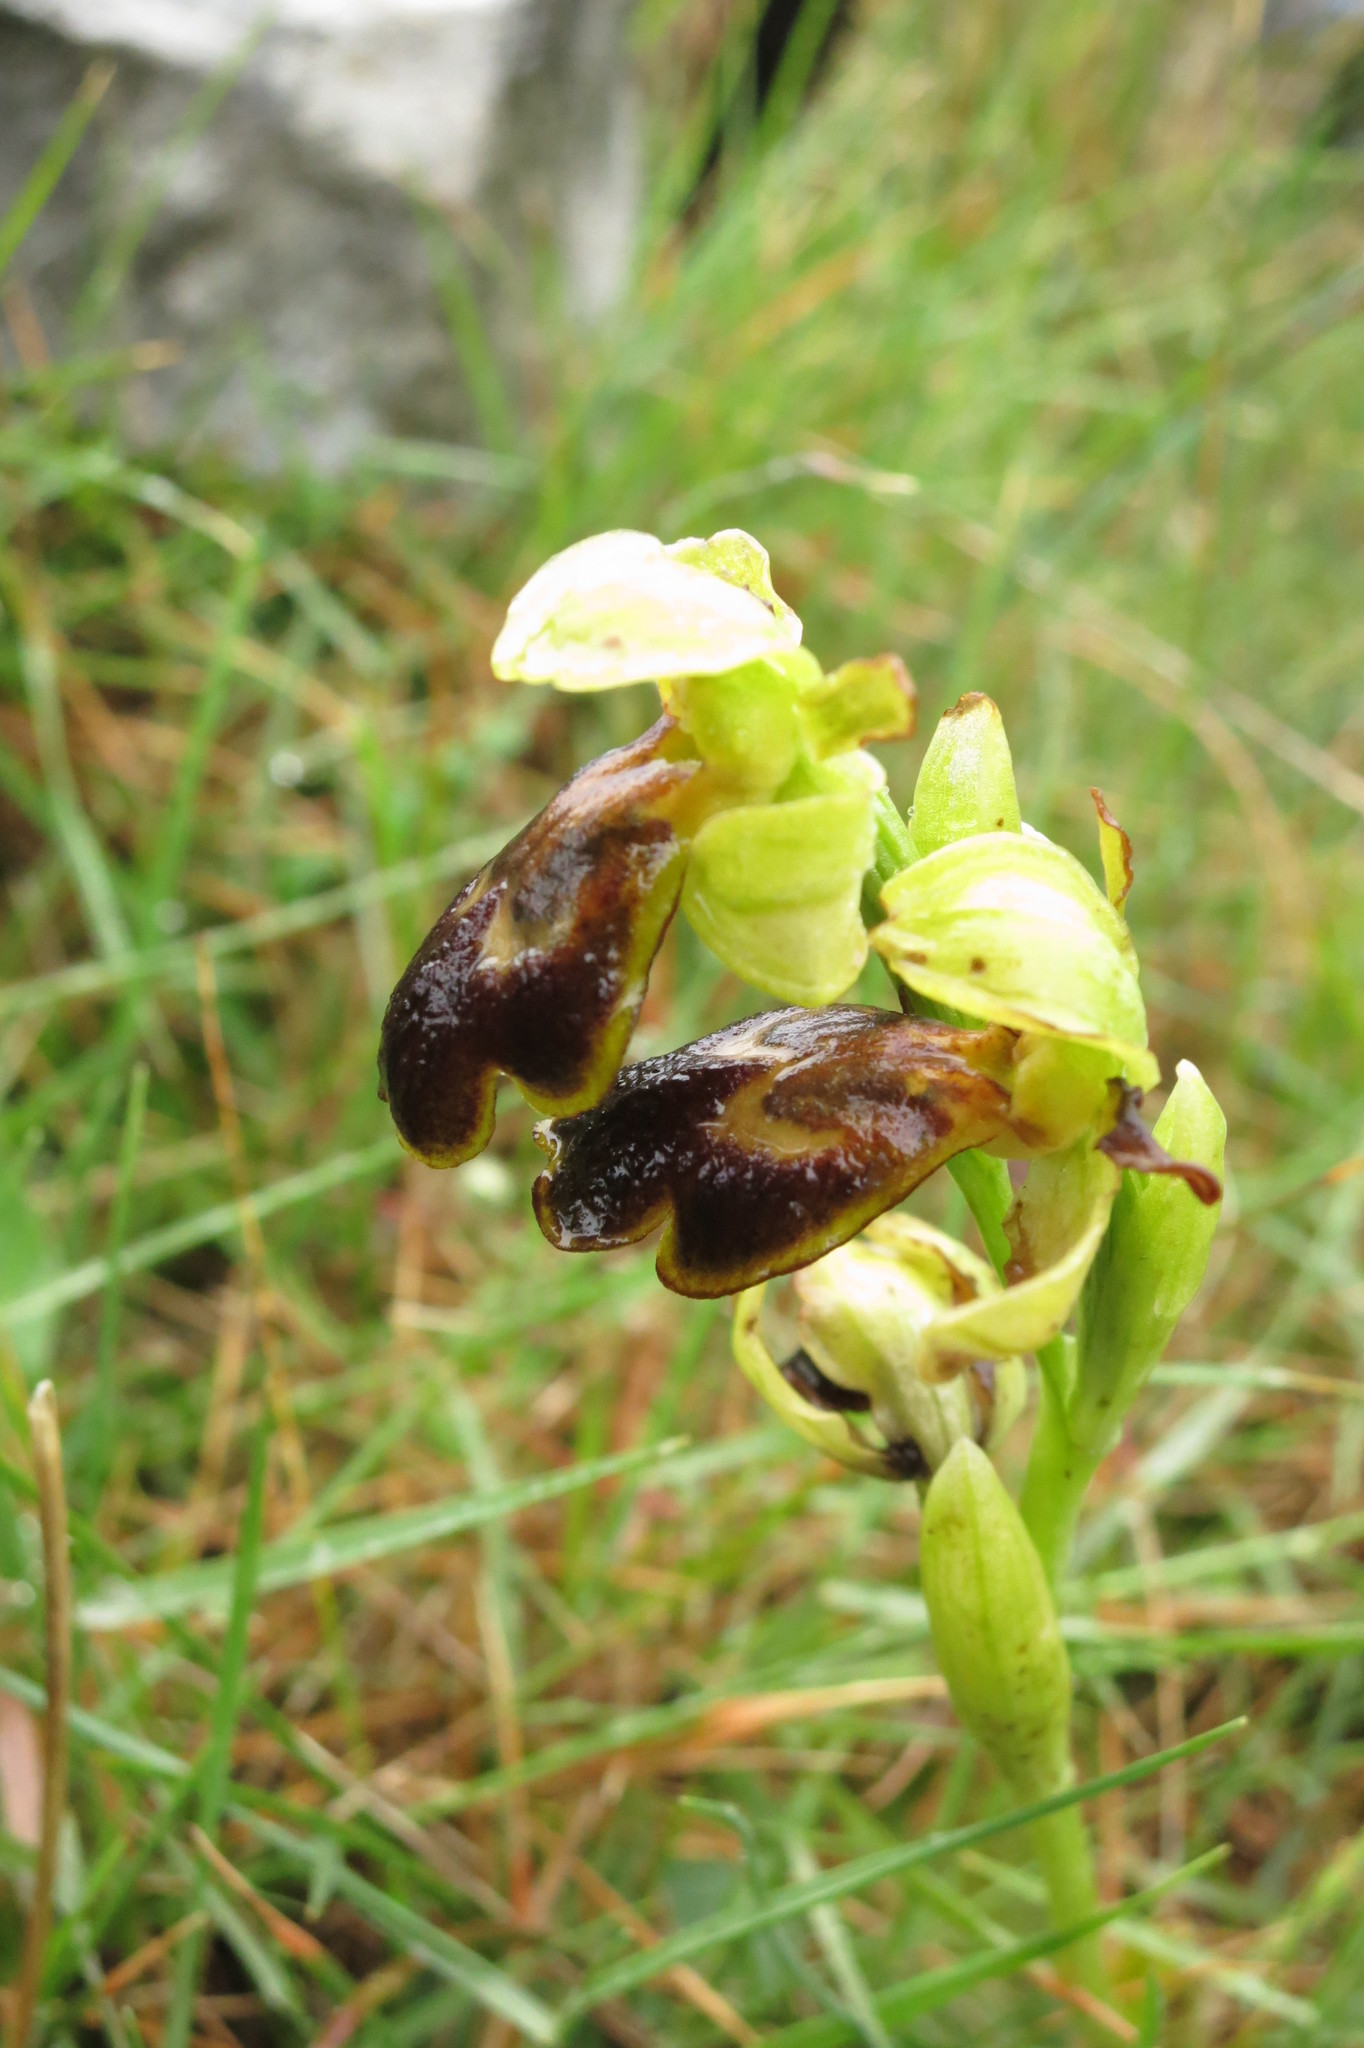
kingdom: Plantae
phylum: Tracheophyta
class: Liliopsida
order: Asparagales
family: Orchidaceae
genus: Ophrys
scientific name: Ophrys fusca
